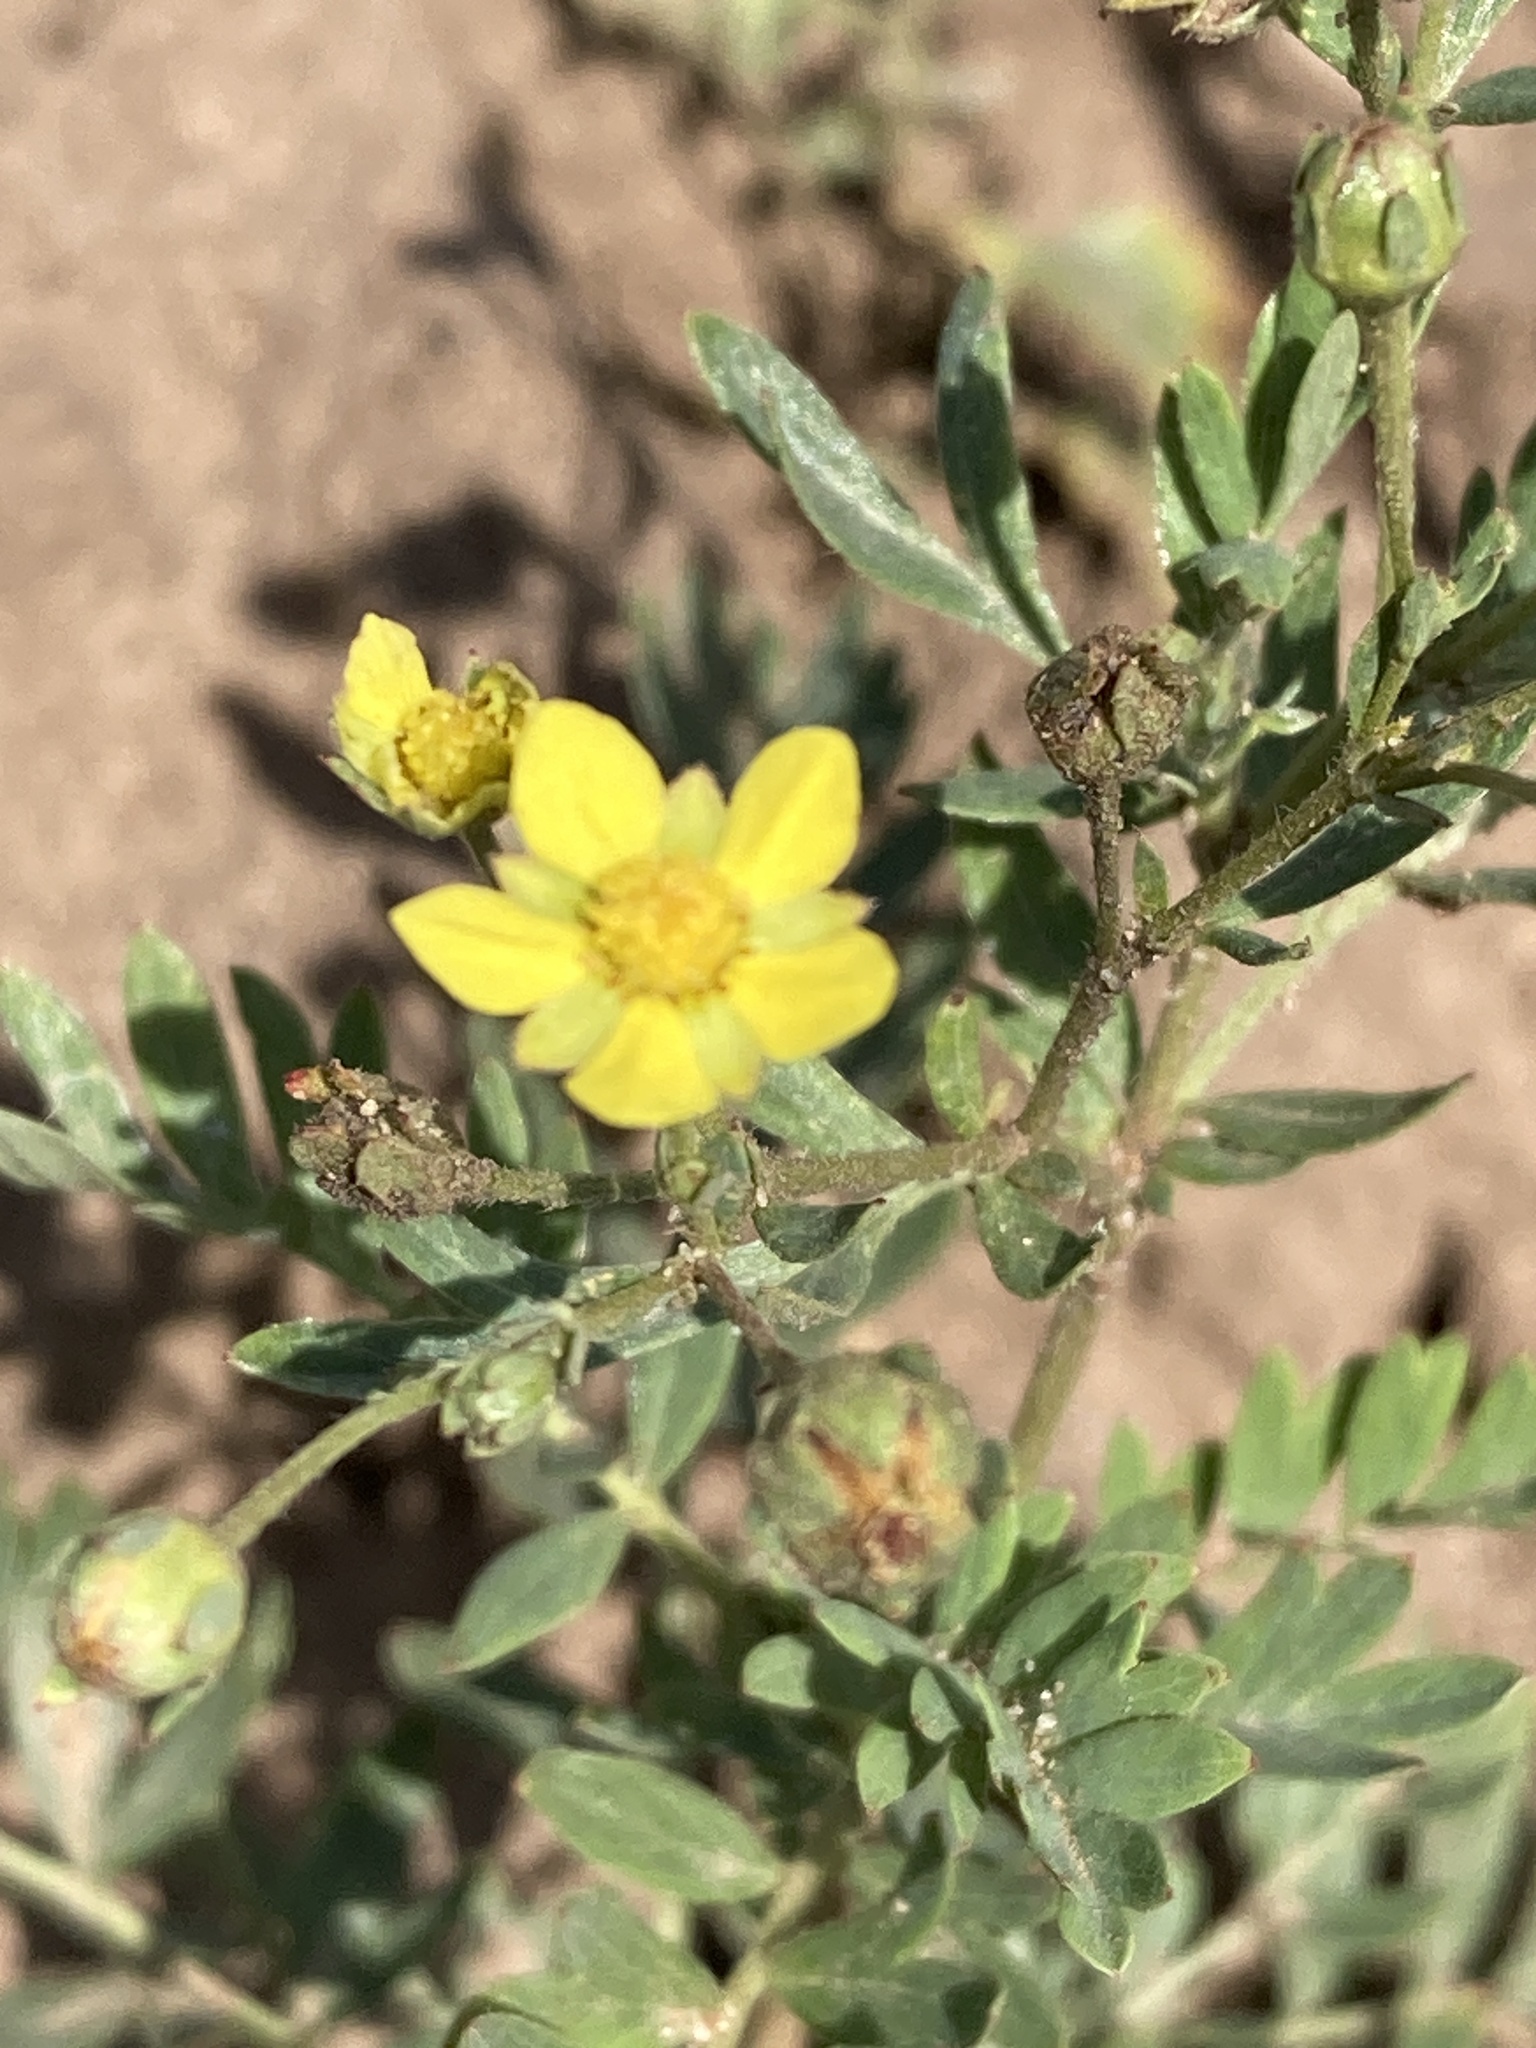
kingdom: Plantae
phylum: Tracheophyta
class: Magnoliopsida
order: Rosales
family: Rosaceae
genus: Sibbaldianthe
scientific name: Sibbaldianthe bifurca
